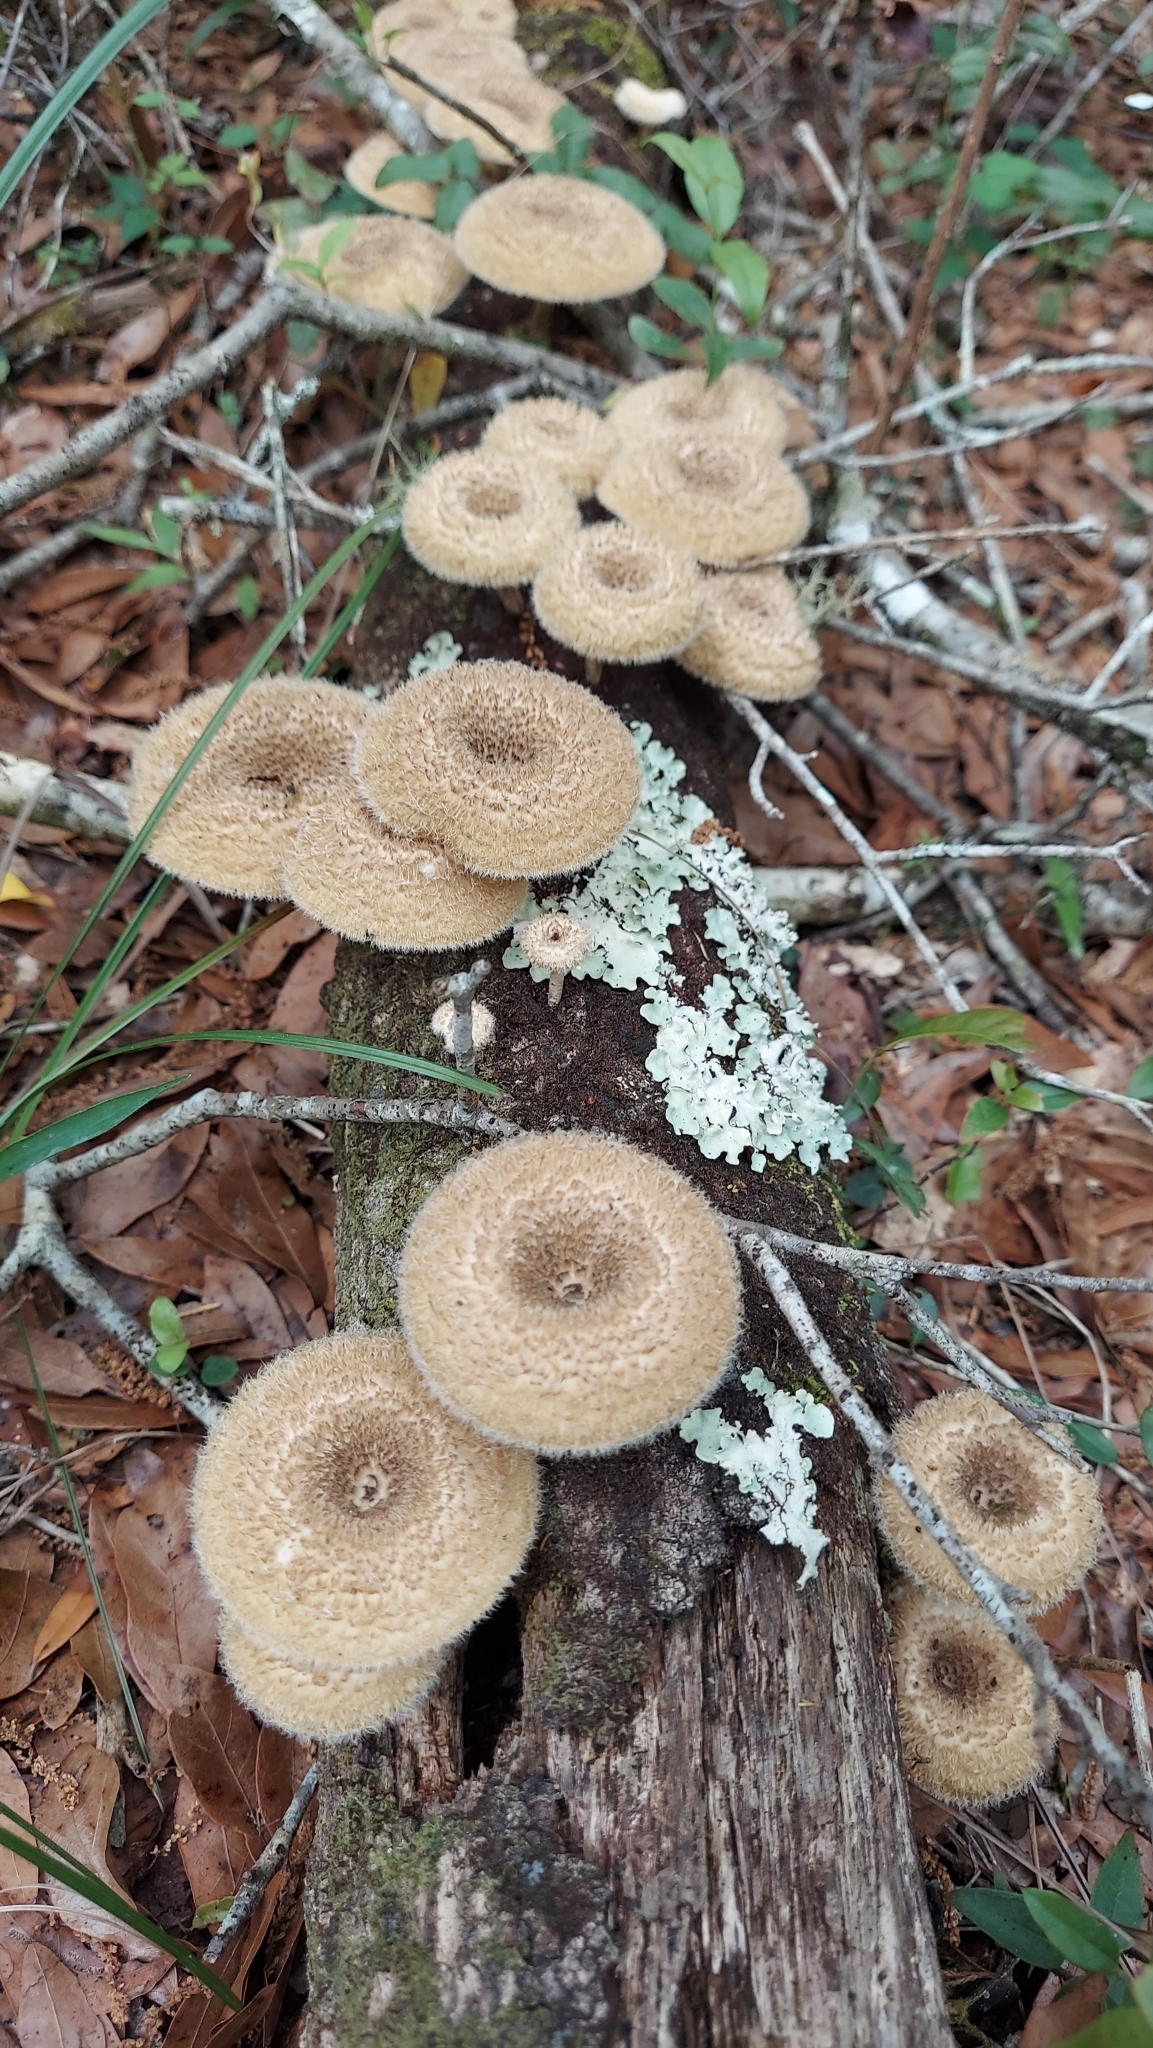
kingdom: Fungi
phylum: Basidiomycota
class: Agaricomycetes
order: Polyporales
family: Polyporaceae
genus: Lentinus
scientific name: Lentinus crinitus
